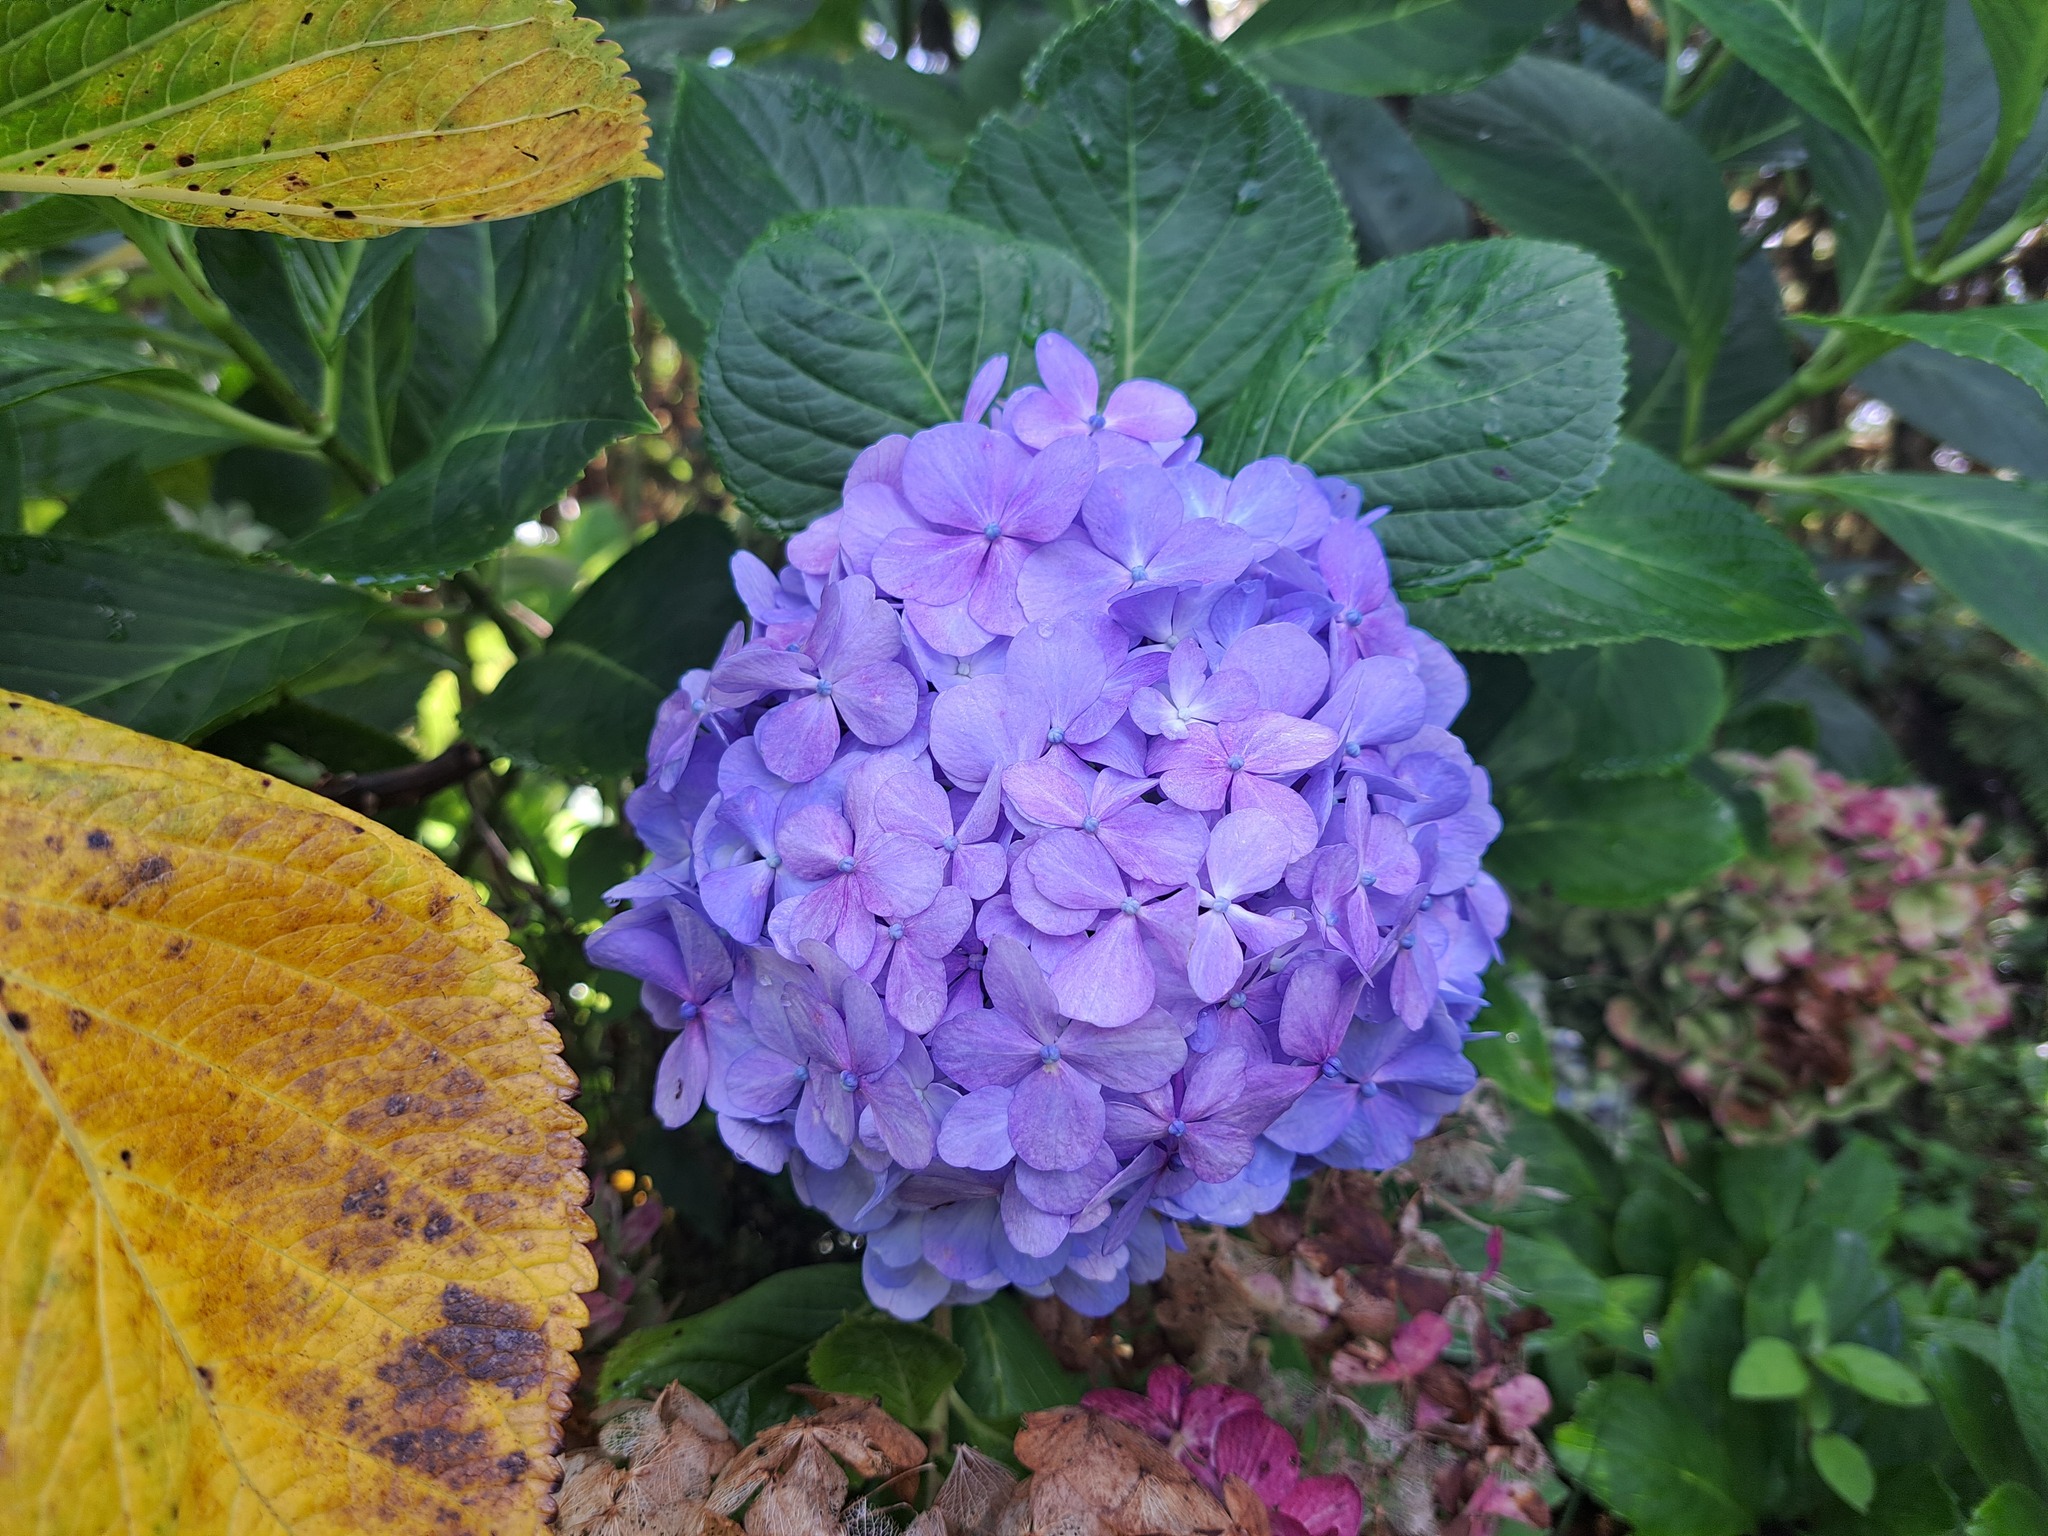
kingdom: Plantae
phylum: Tracheophyta
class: Magnoliopsida
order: Cornales
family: Hydrangeaceae
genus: Hydrangea
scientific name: Hydrangea macrophylla
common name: Hydrangea
